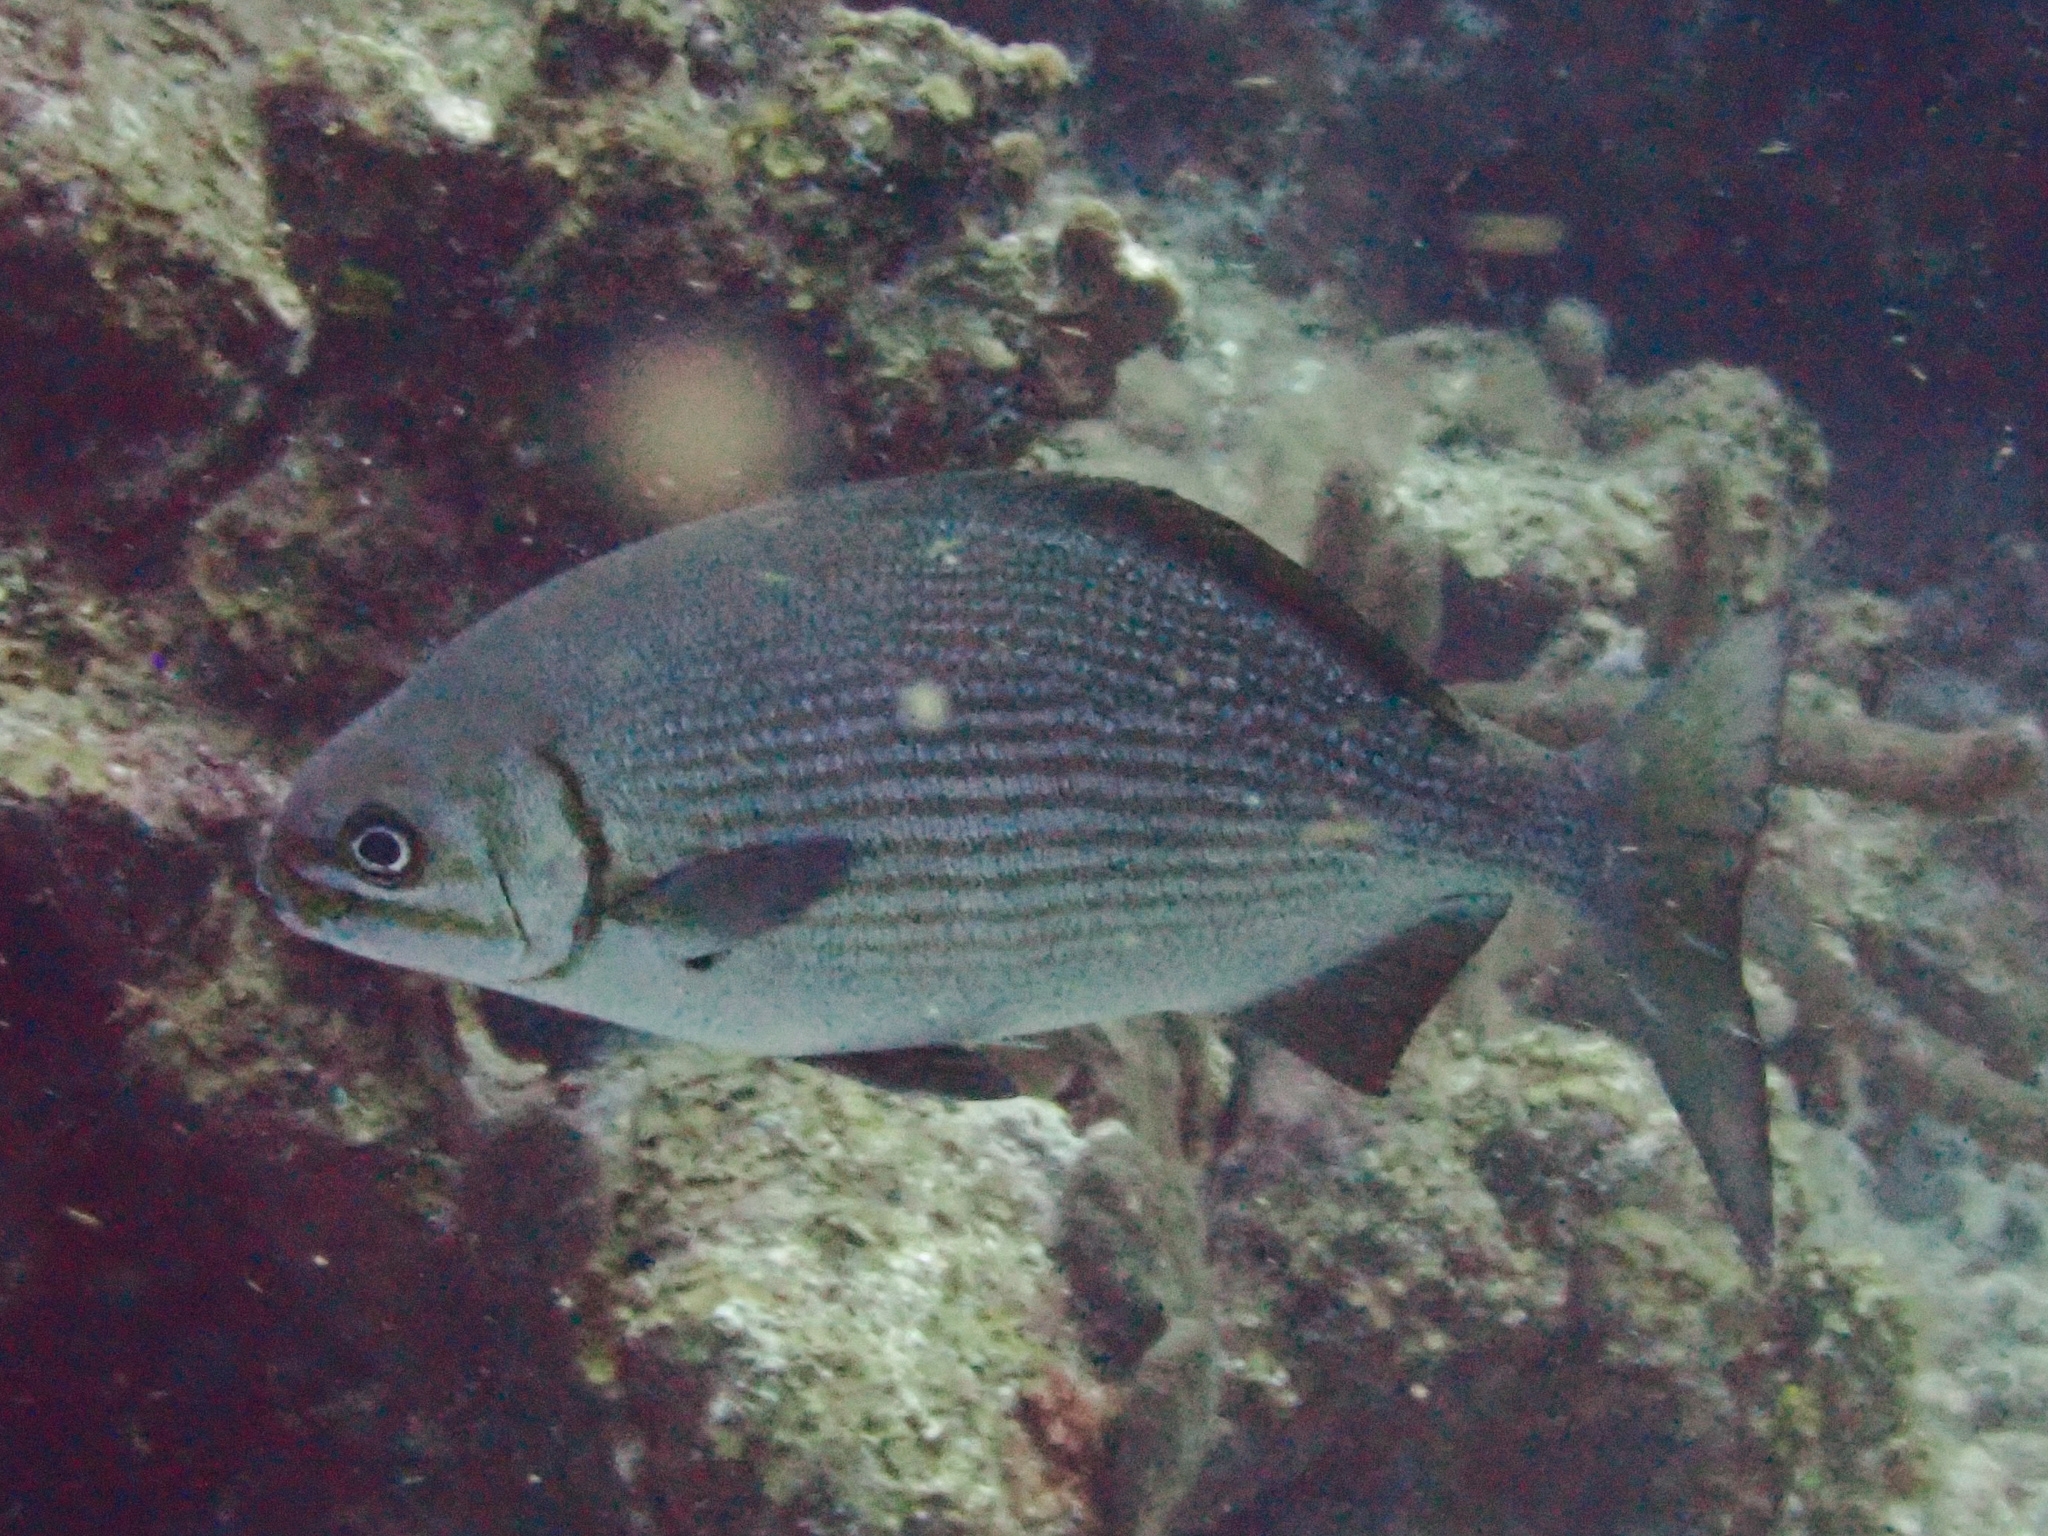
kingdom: Animalia
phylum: Chordata
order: Perciformes
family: Kyphosidae
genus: Kyphosus
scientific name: Kyphosus sectatrix
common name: Bermuda chub
